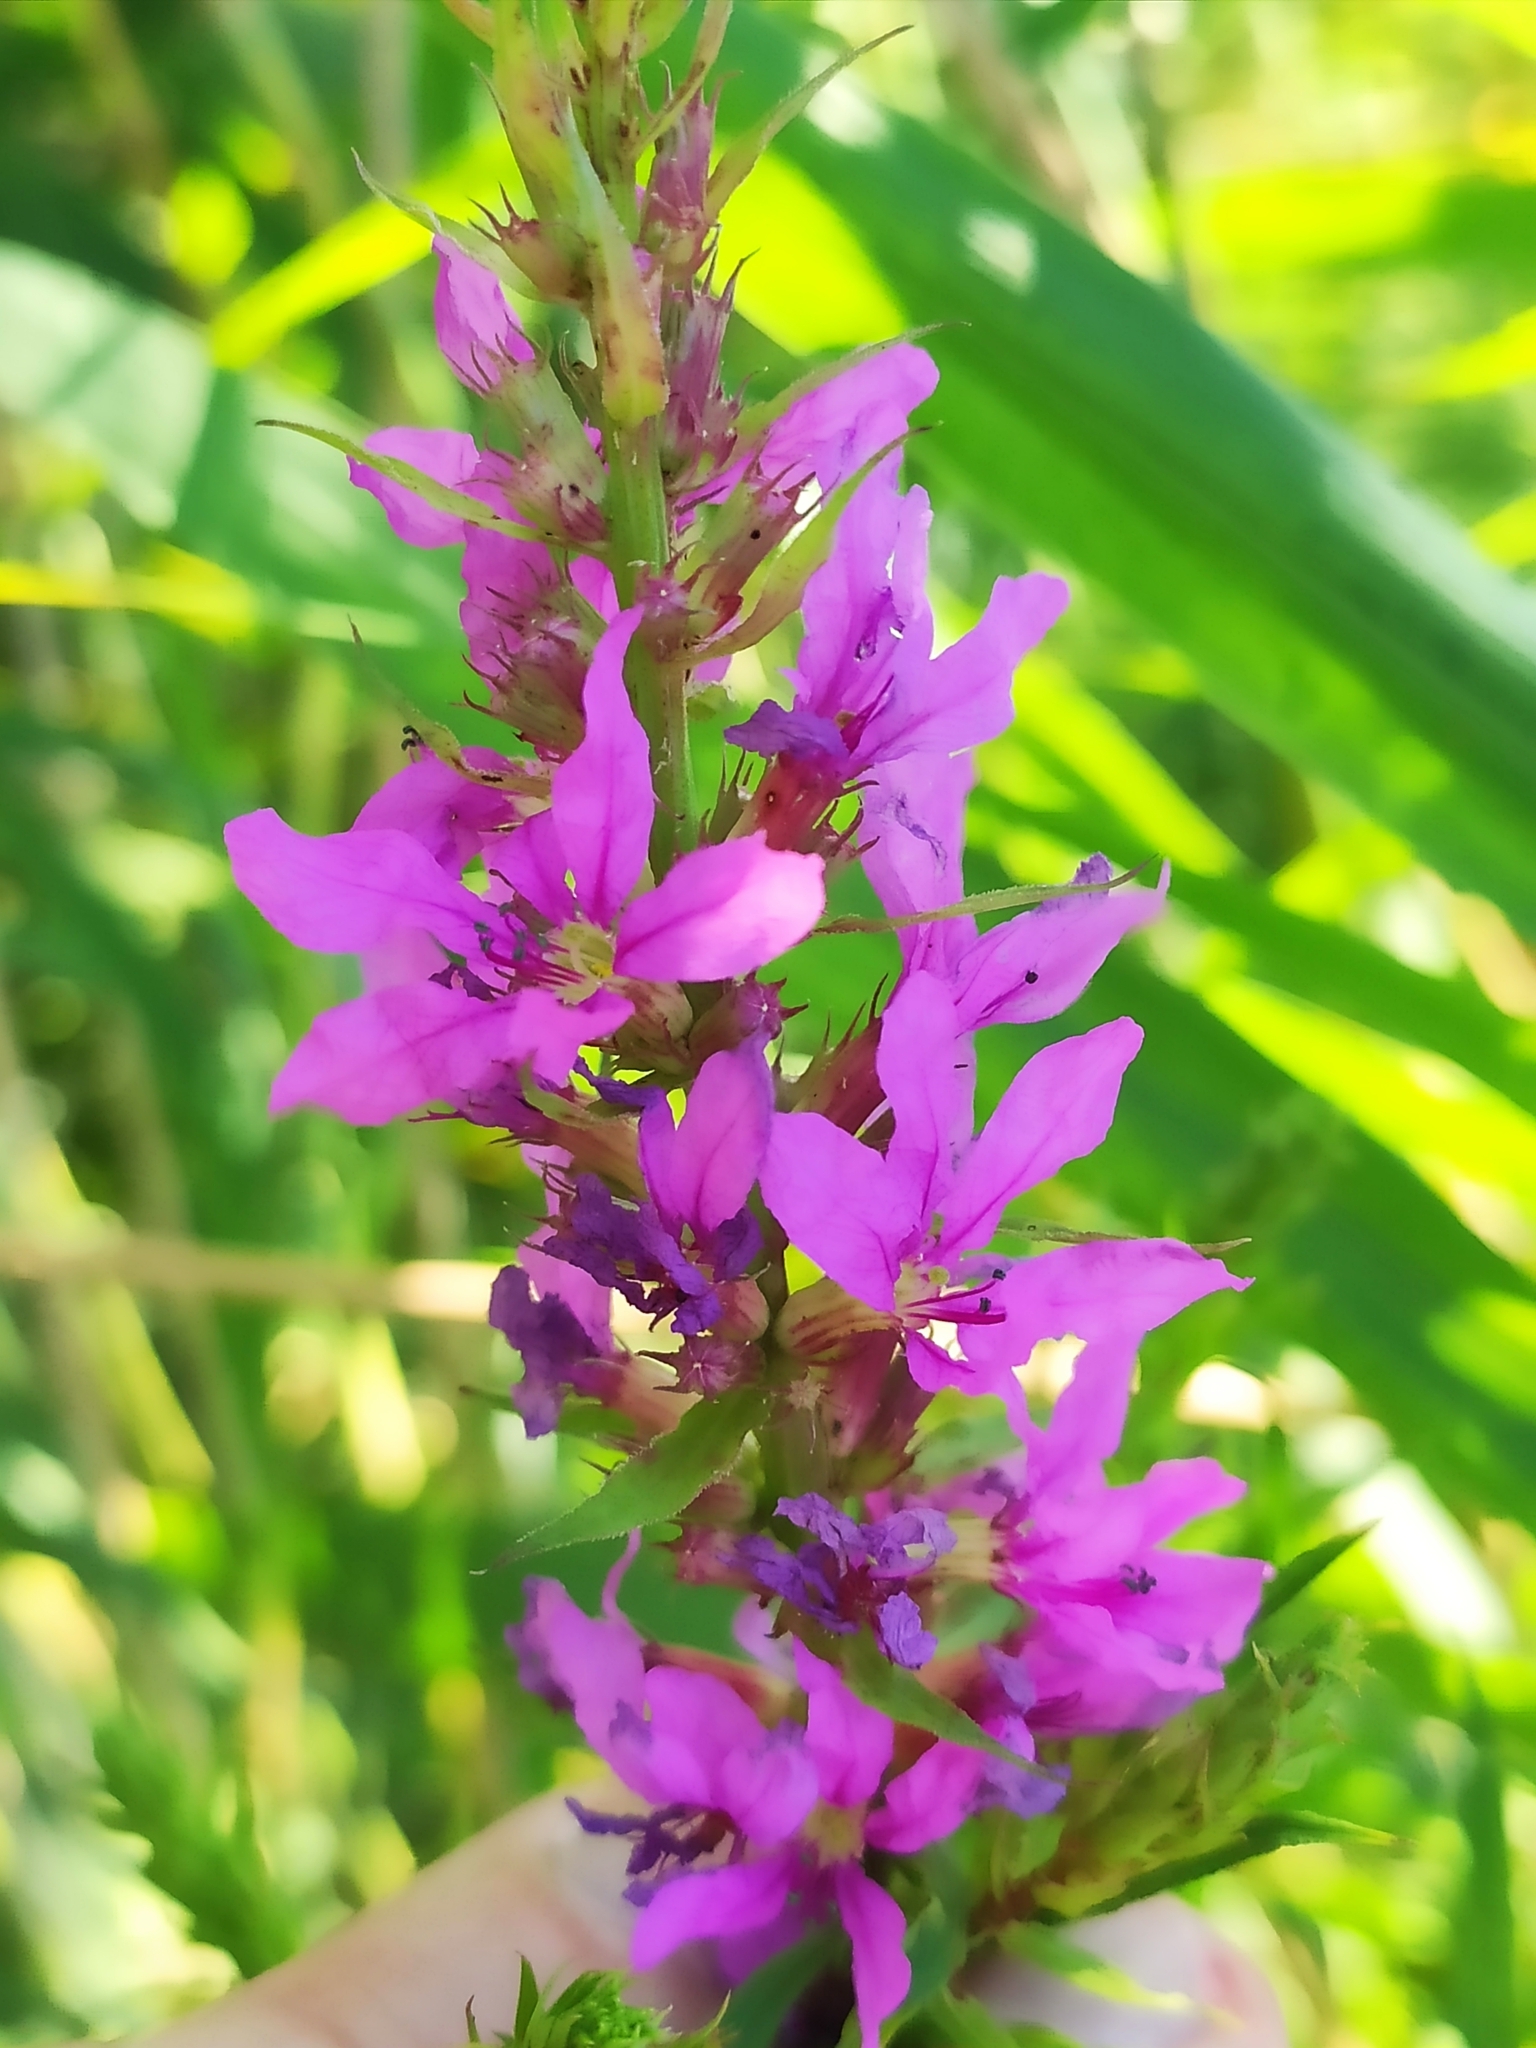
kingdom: Plantae
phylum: Tracheophyta
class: Magnoliopsida
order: Myrtales
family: Lythraceae
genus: Lythrum
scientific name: Lythrum salicaria
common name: Purple loosestrife
